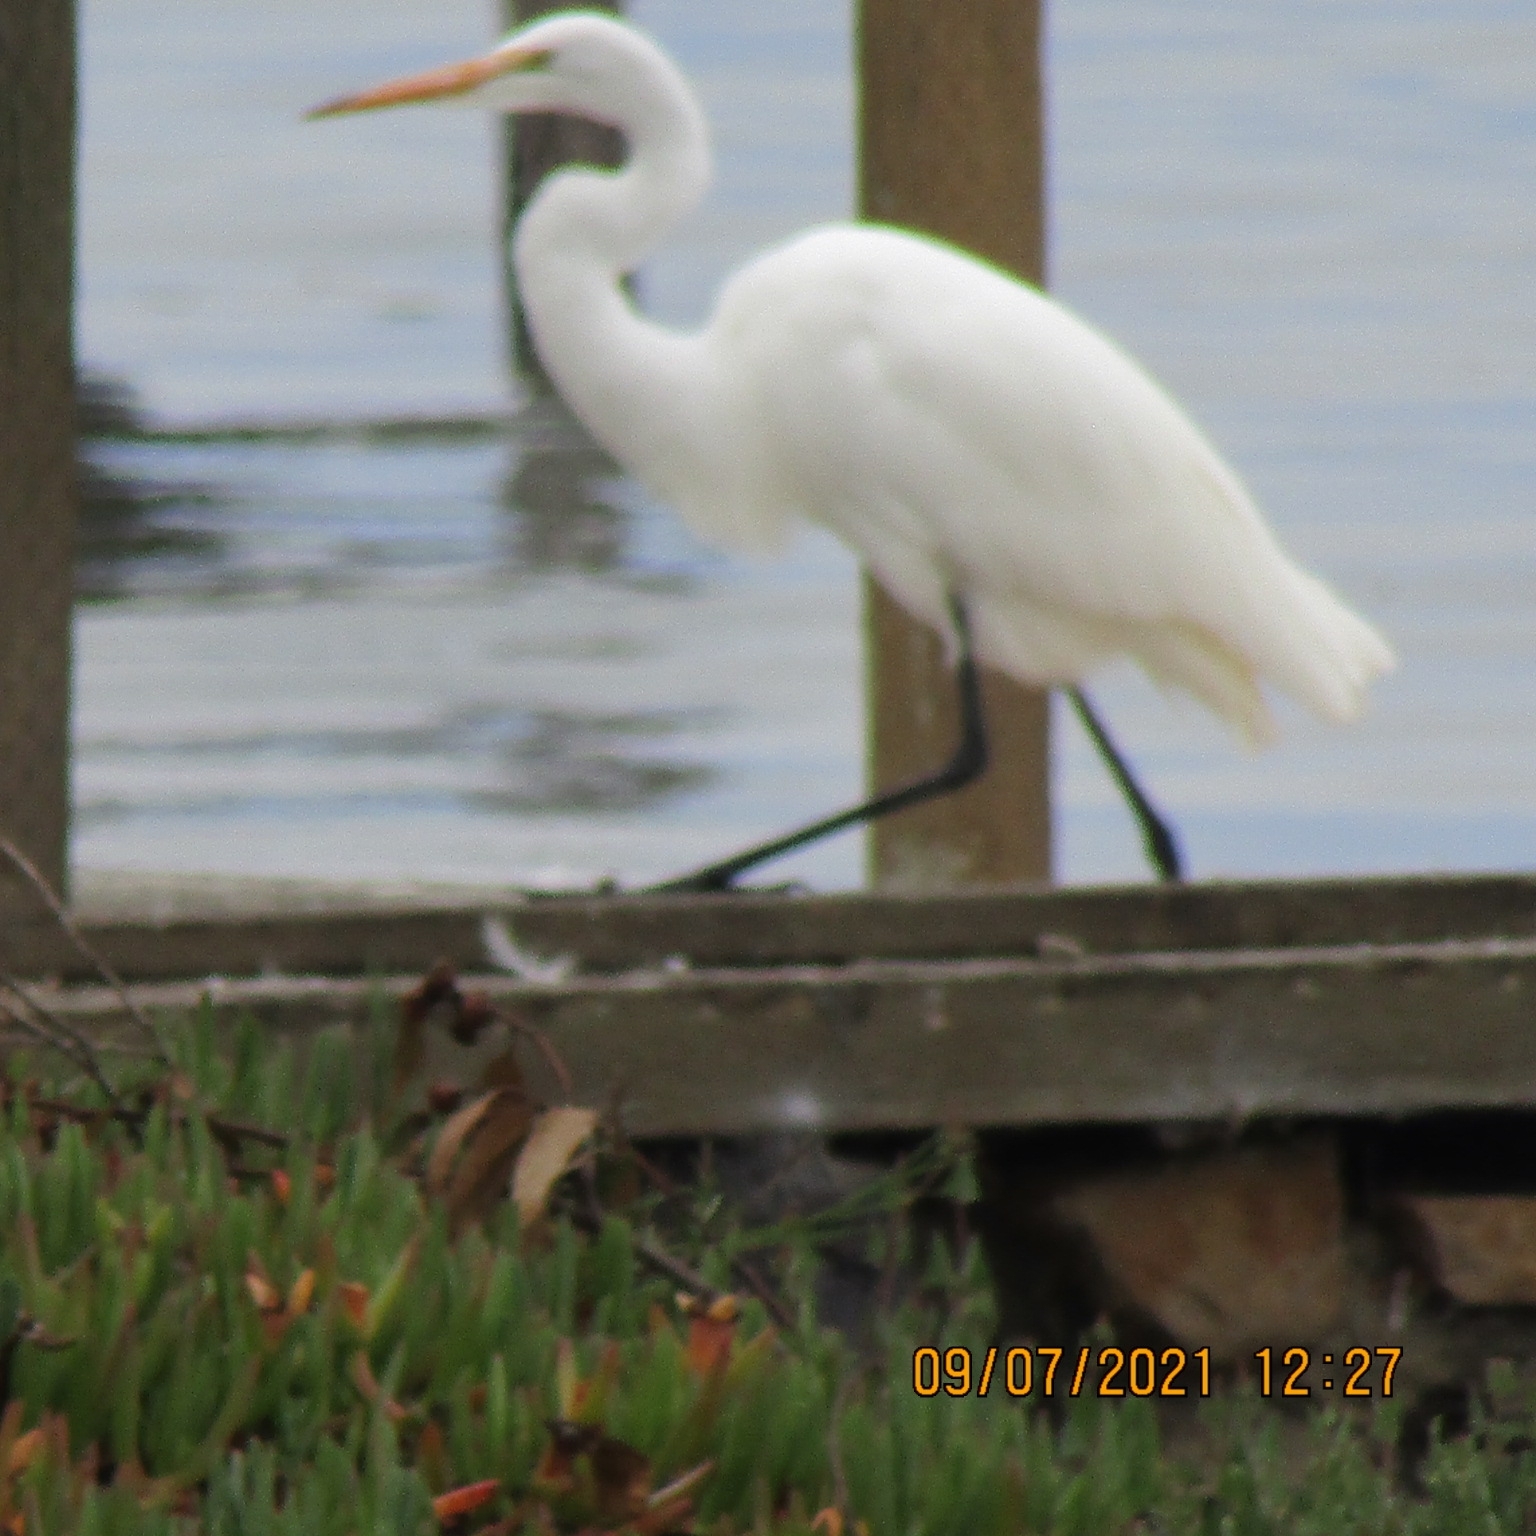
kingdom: Animalia
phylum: Chordata
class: Aves
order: Pelecaniformes
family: Ardeidae
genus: Ardea
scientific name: Ardea alba
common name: Great egret
